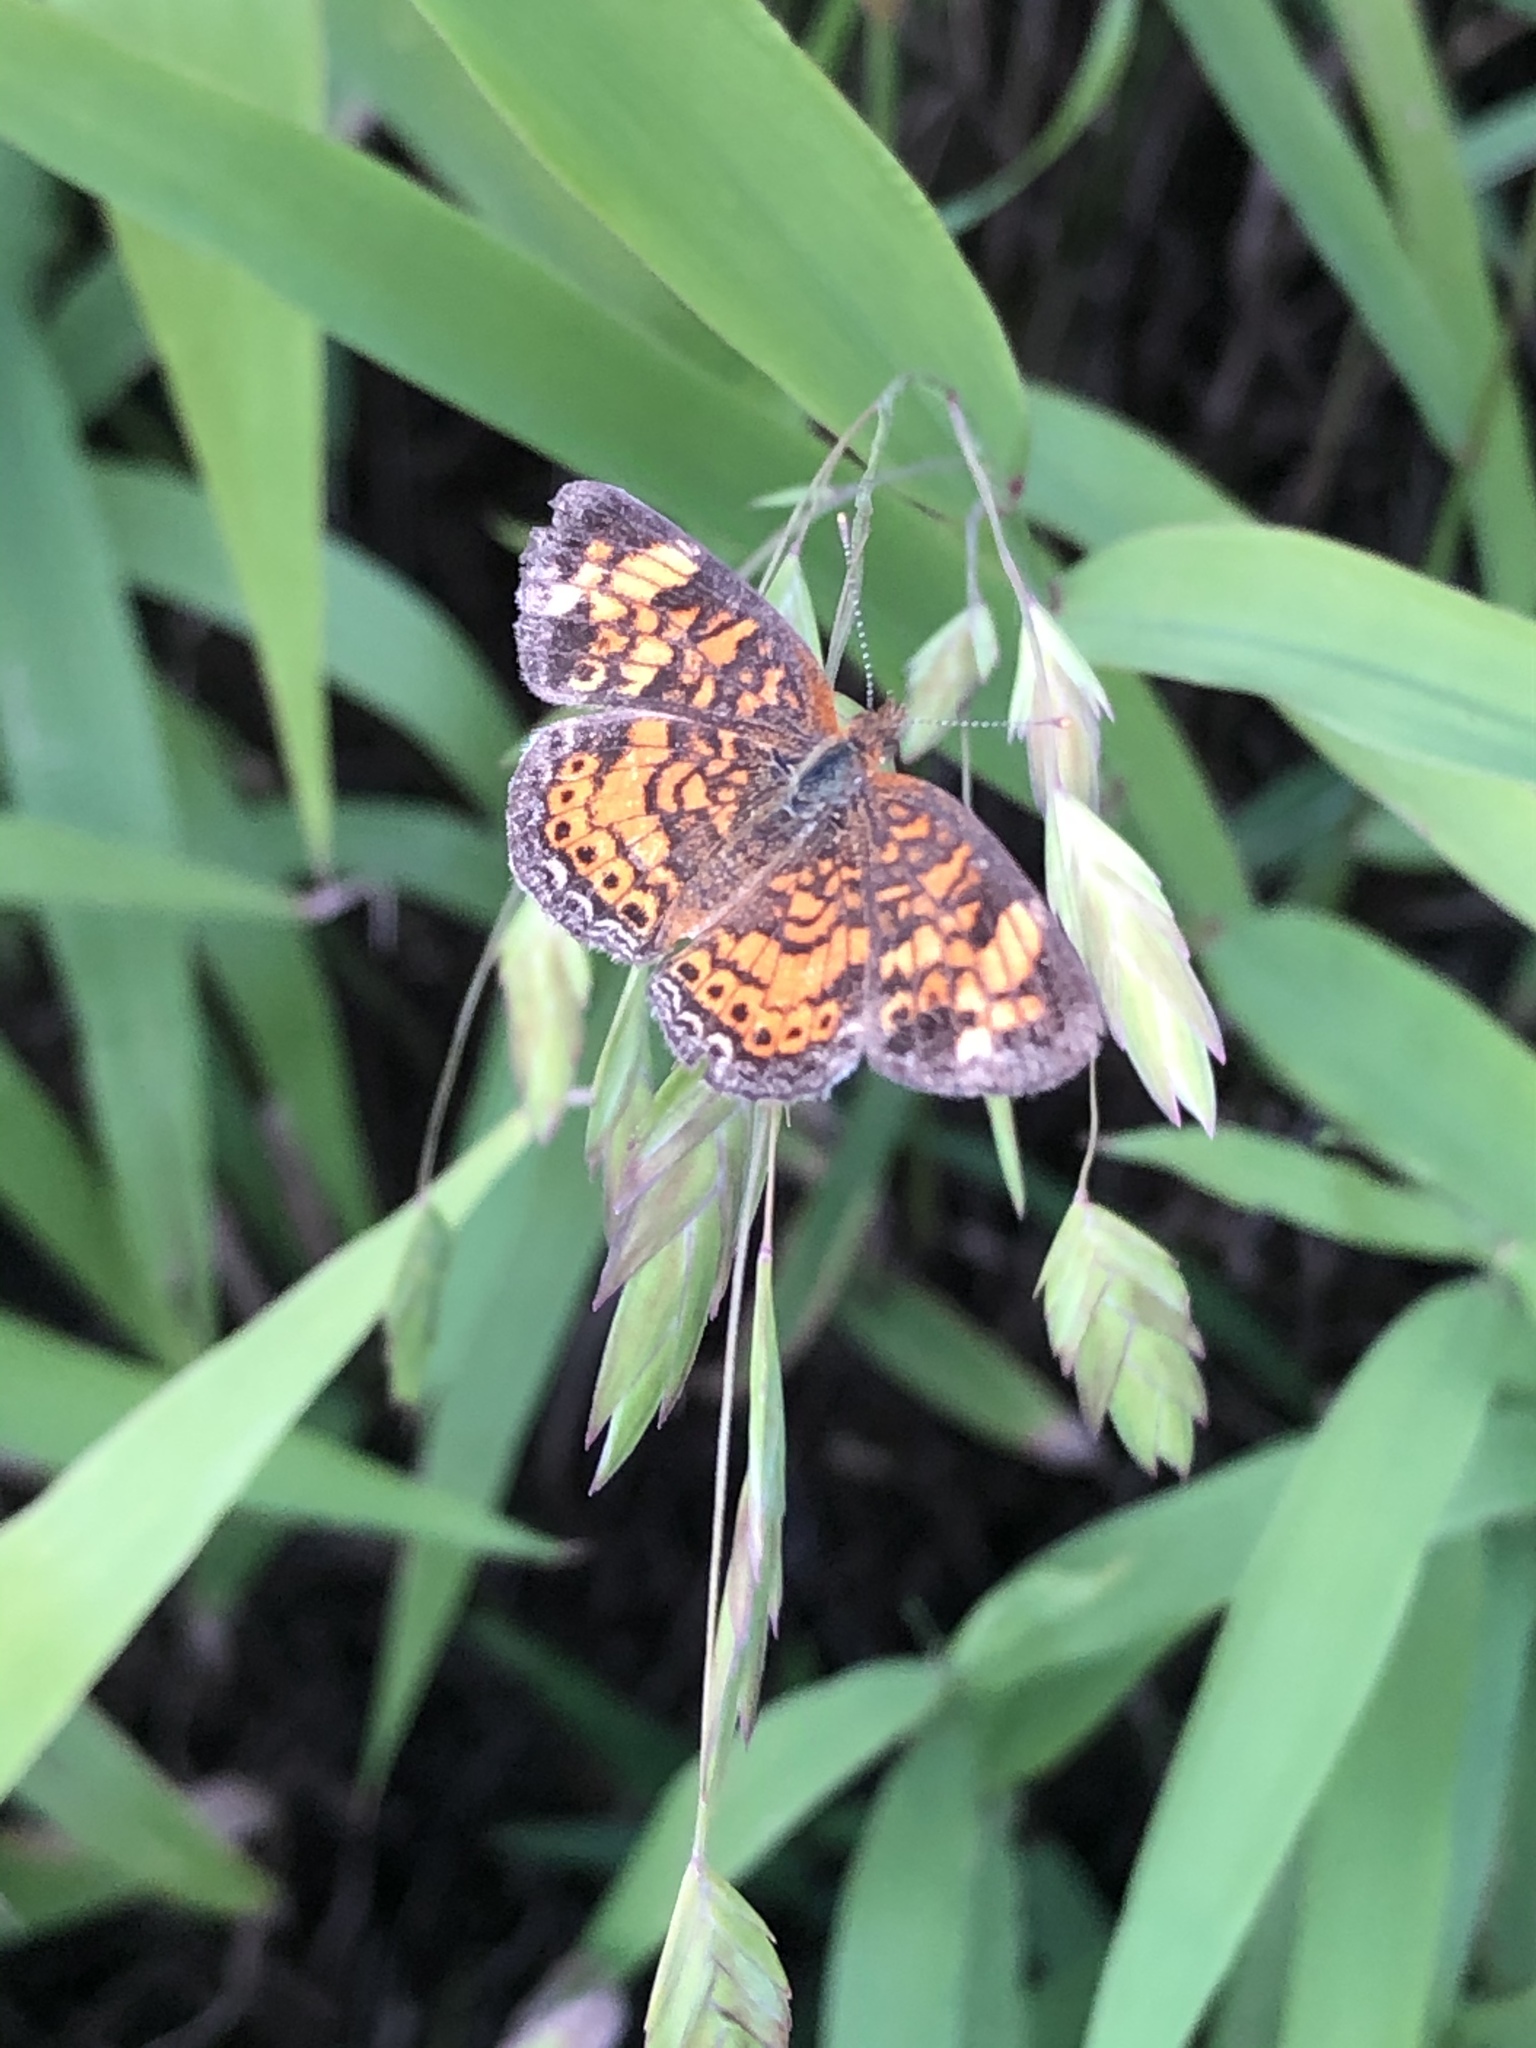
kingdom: Animalia
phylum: Arthropoda
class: Insecta
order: Lepidoptera
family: Nymphalidae
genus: Phyciodes
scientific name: Phyciodes tharos
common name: Pearl crescent
